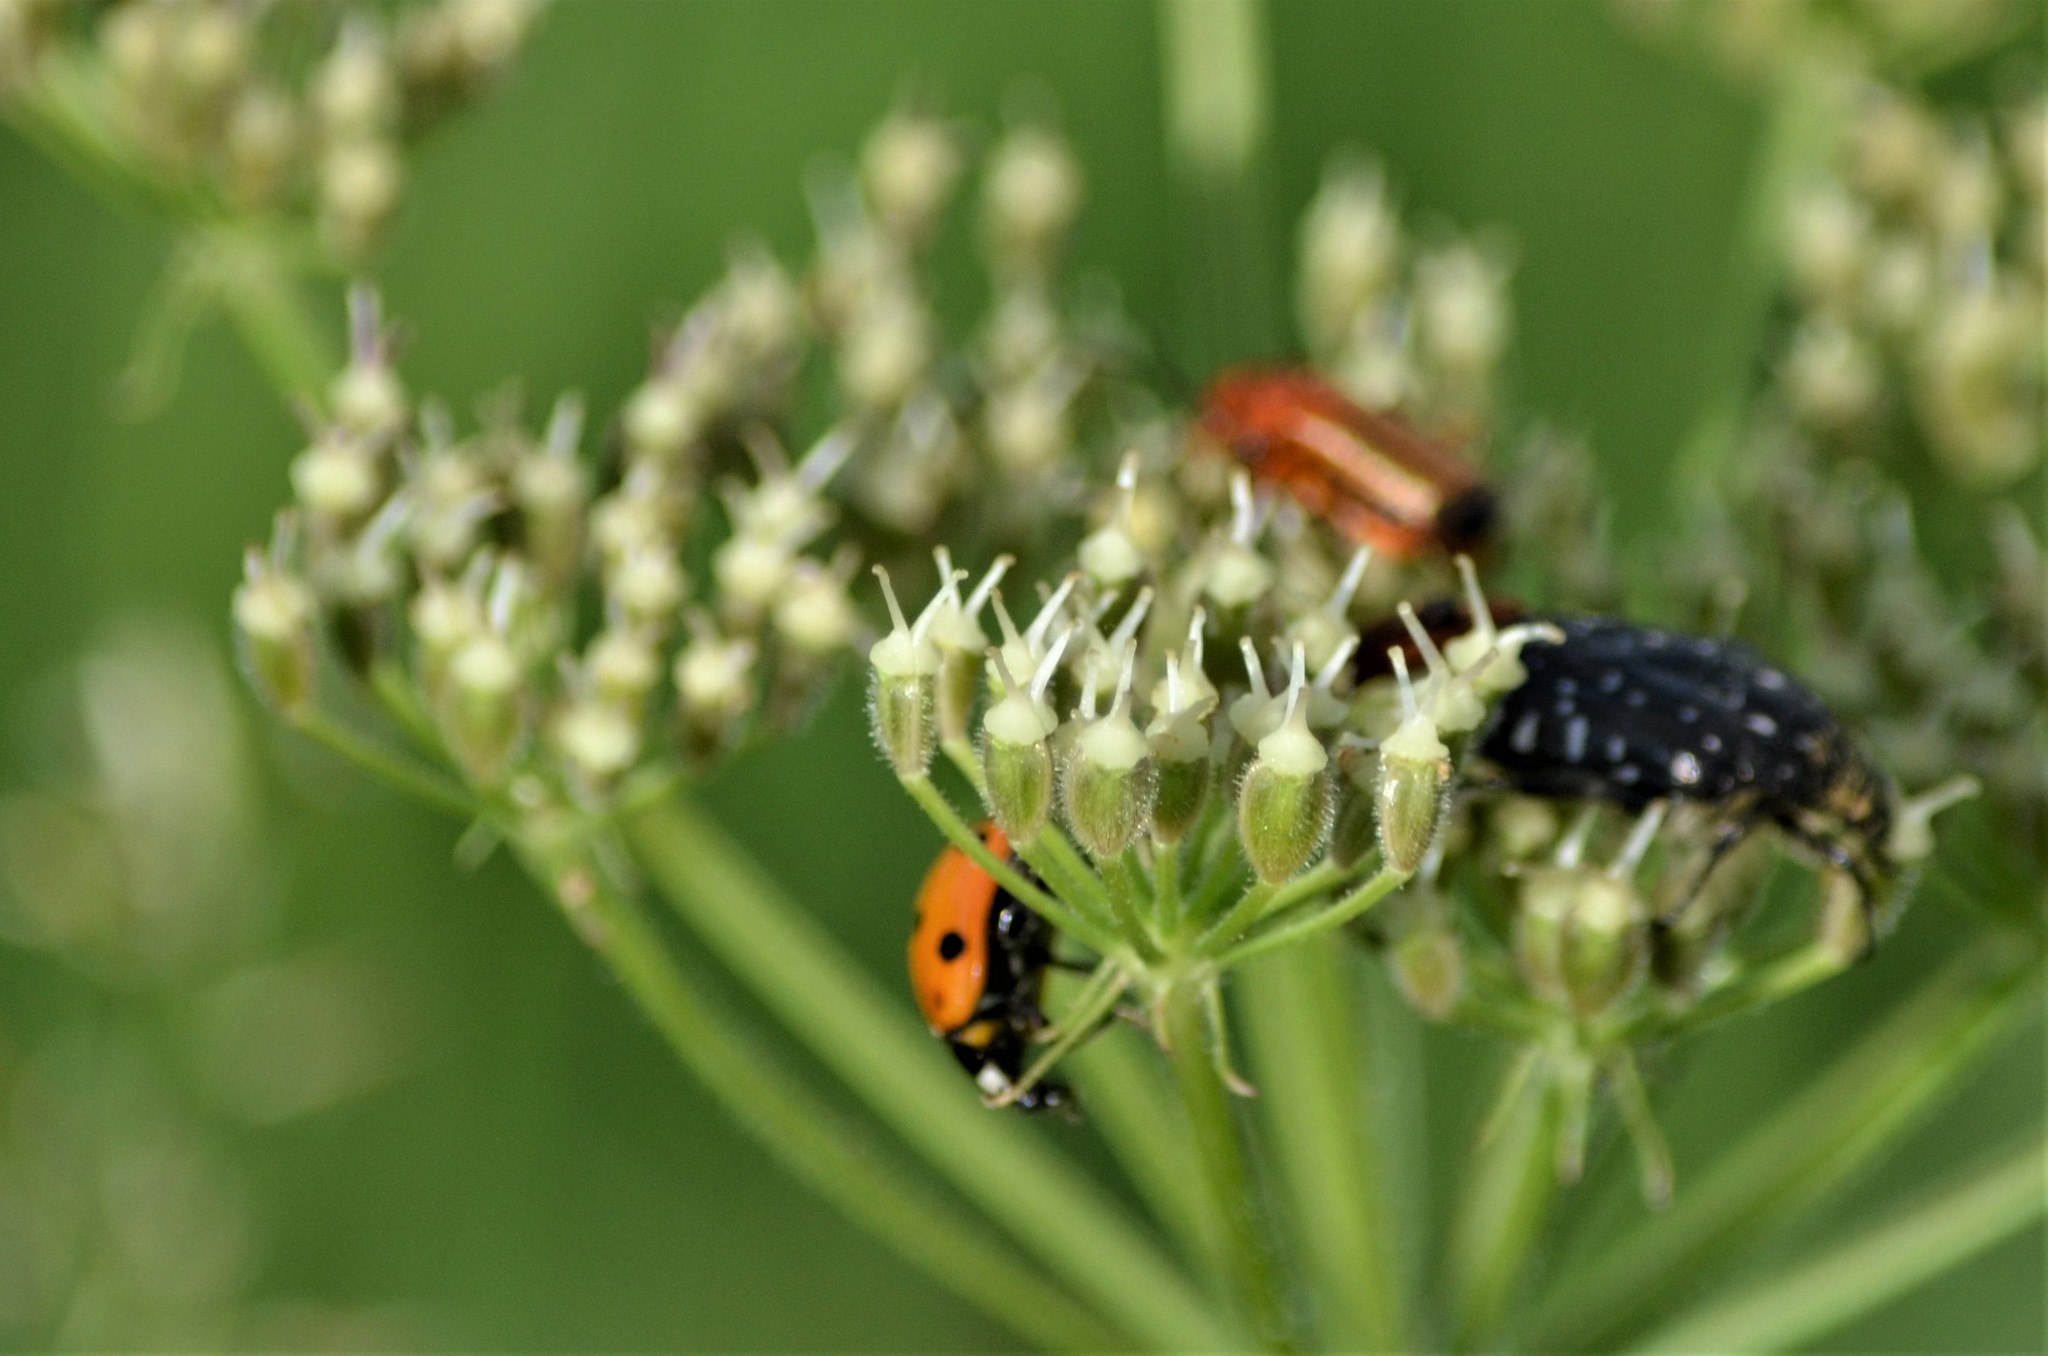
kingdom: Animalia
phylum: Arthropoda
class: Insecta
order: Coleoptera
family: Coccinellidae
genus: Coccinella
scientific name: Coccinella septempunctata
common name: Sevenspotted lady beetle
